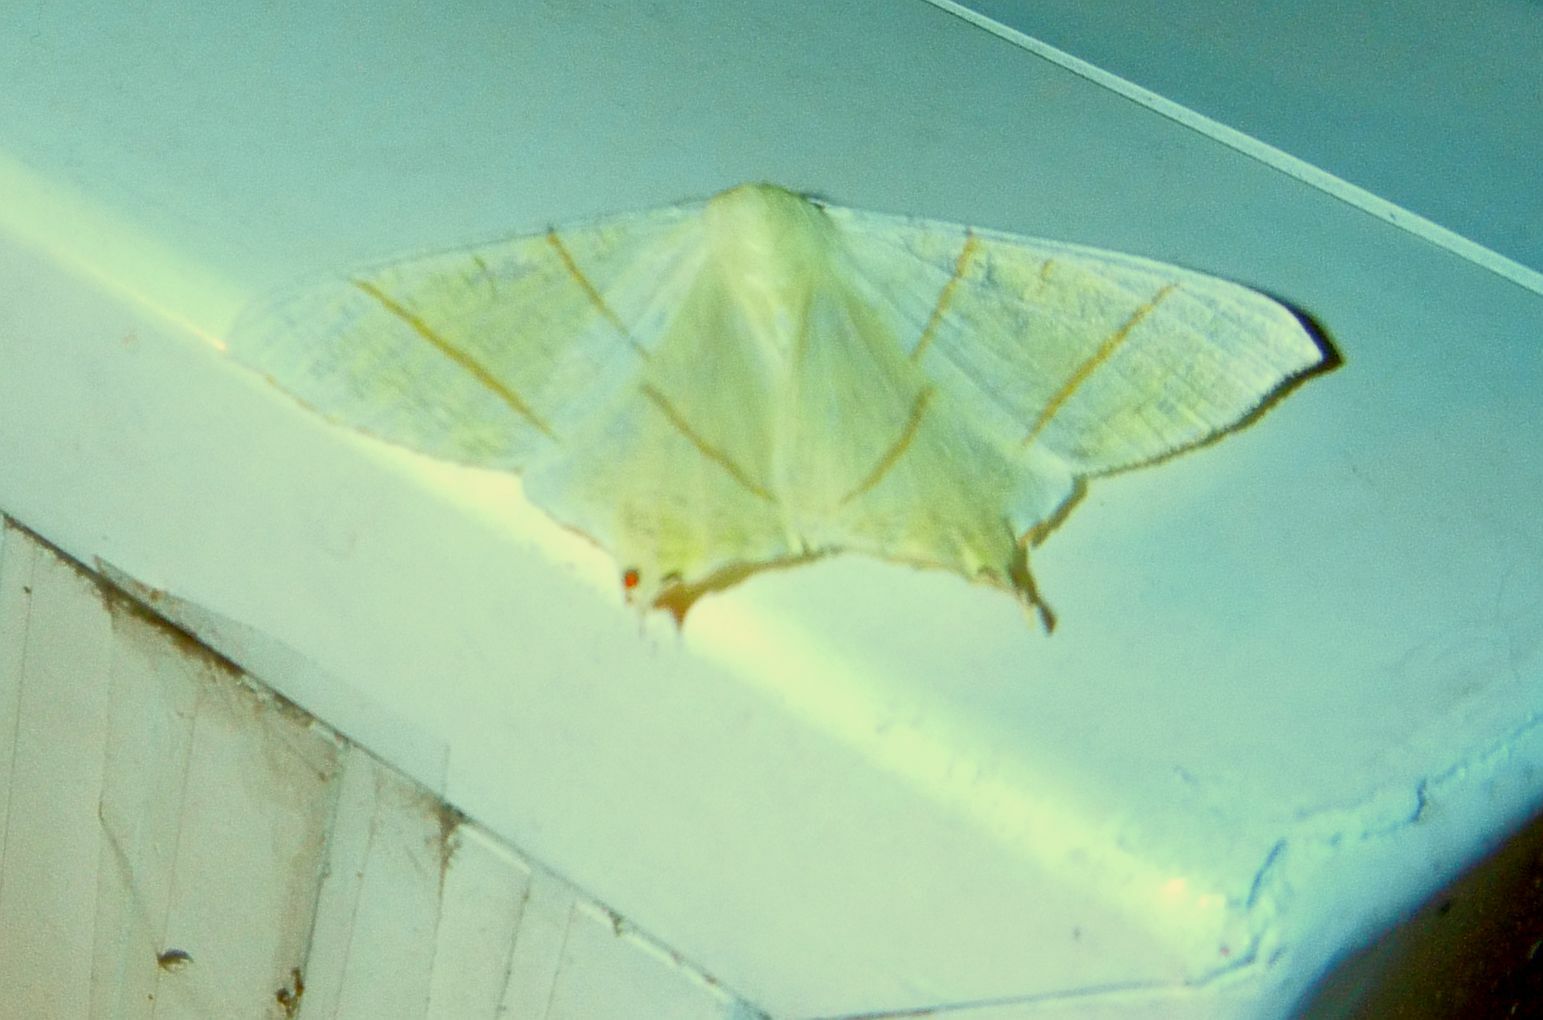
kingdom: Animalia
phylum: Arthropoda
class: Insecta
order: Lepidoptera
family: Geometridae
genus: Ourapteryx
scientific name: Ourapteryx sambucaria
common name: Swallow-tailed moth
